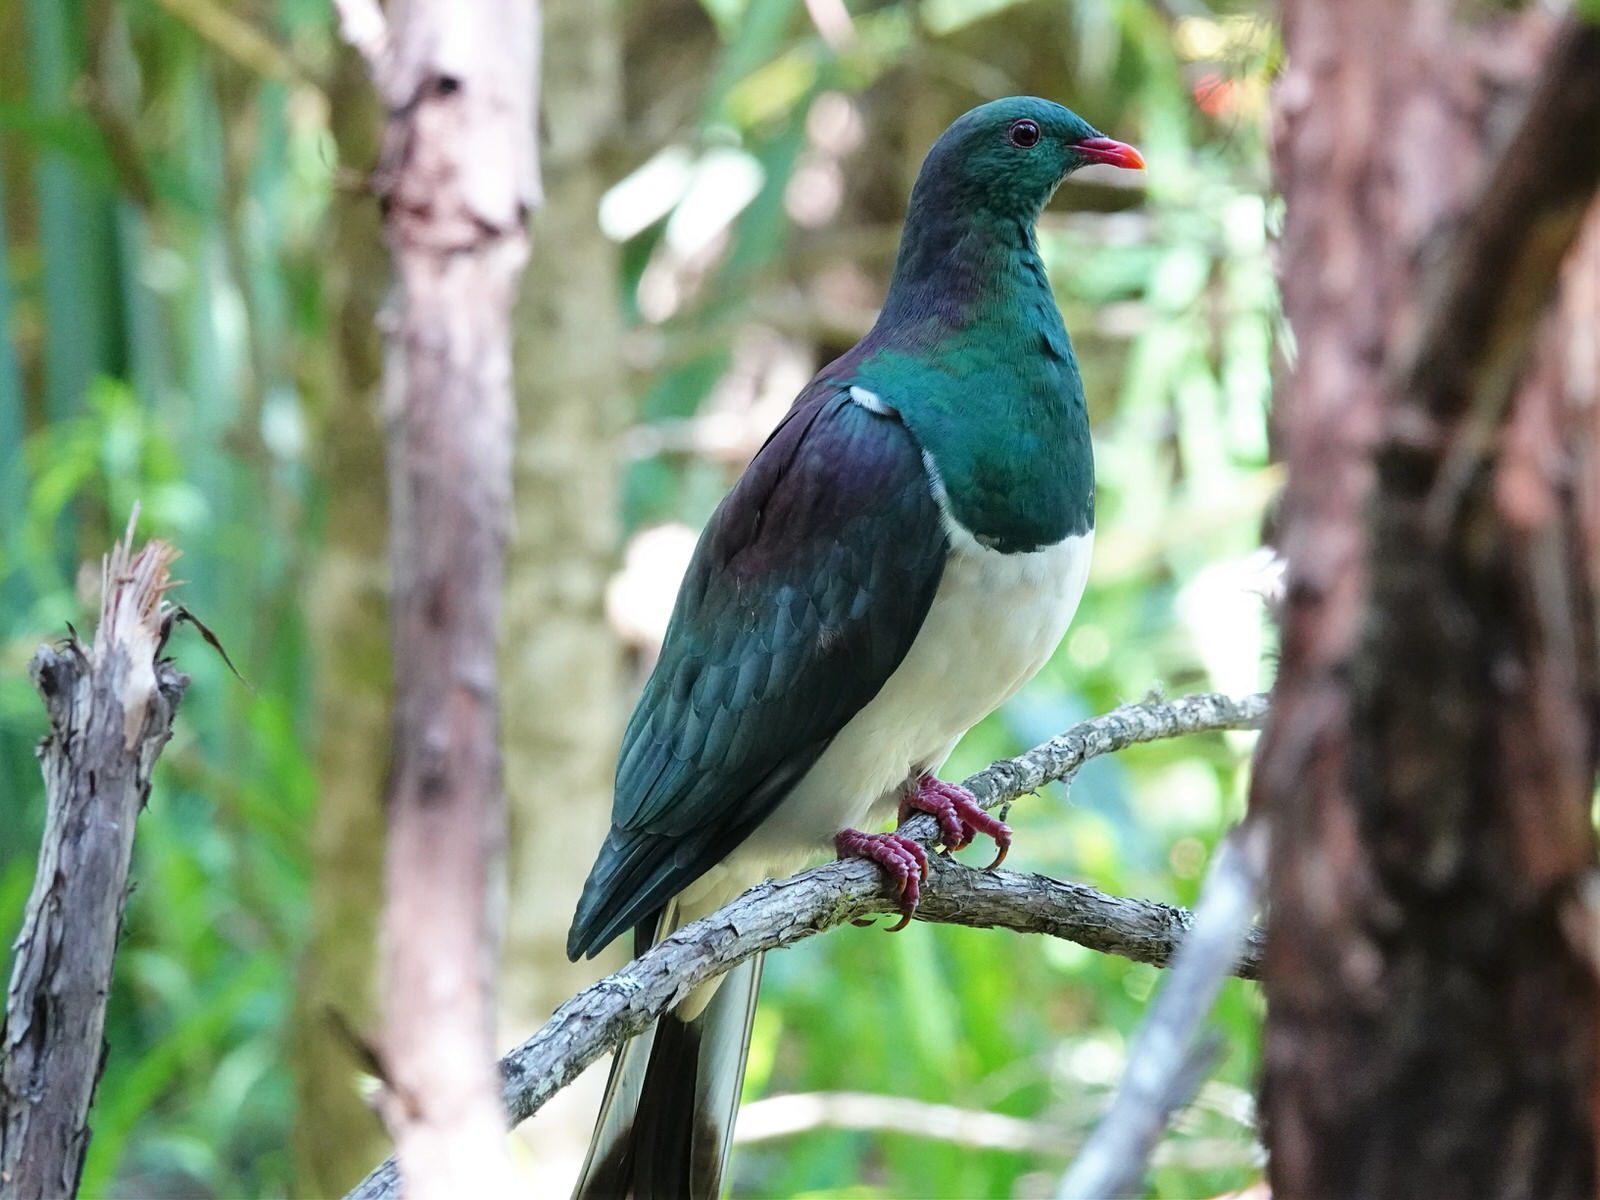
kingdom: Animalia
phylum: Chordata
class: Aves
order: Columbiformes
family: Columbidae
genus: Hemiphaga
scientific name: Hemiphaga novaeseelandiae
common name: New zealand pigeon
